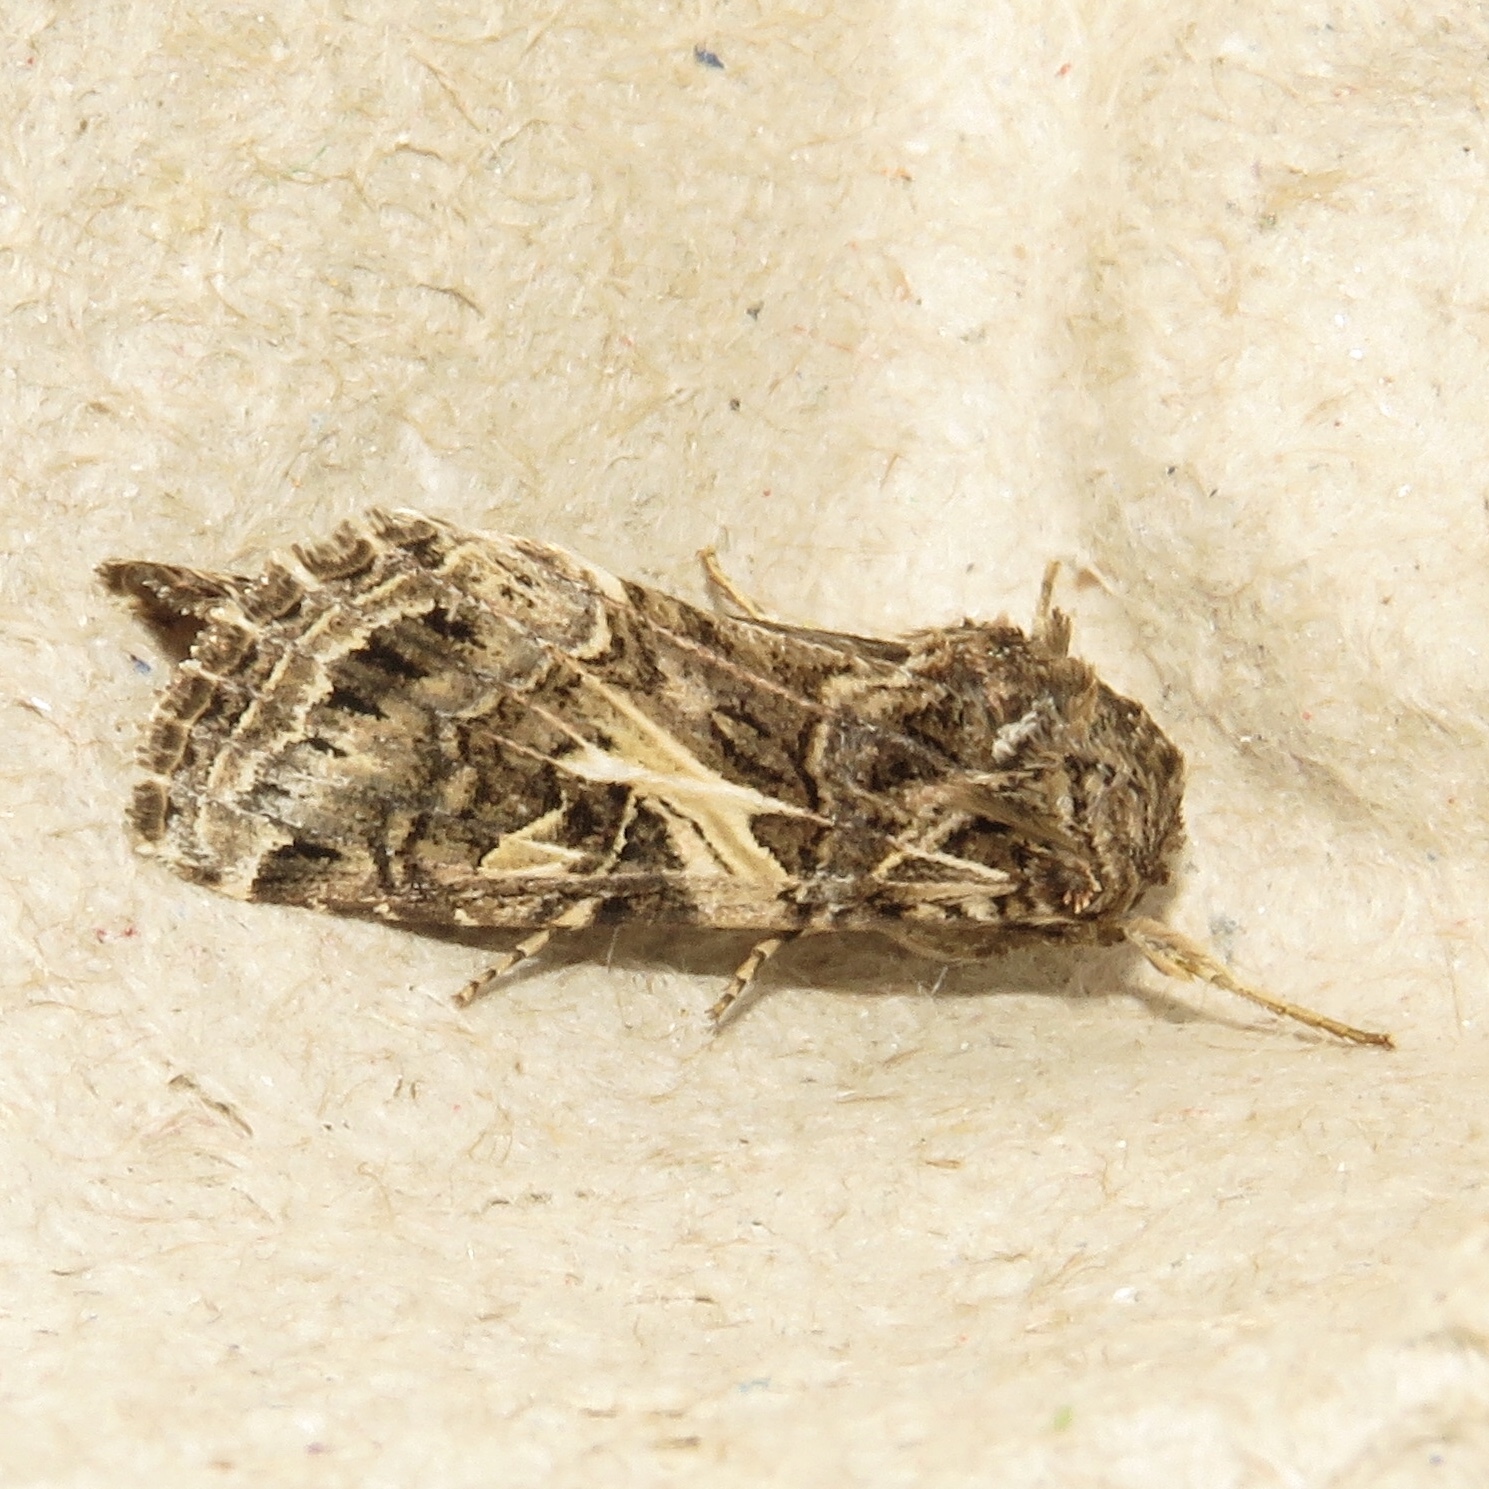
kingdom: Animalia
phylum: Arthropoda
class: Insecta
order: Lepidoptera
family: Noctuidae
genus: Spodoptera
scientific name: Spodoptera ornithogalli
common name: Yellow-striped armyworm
